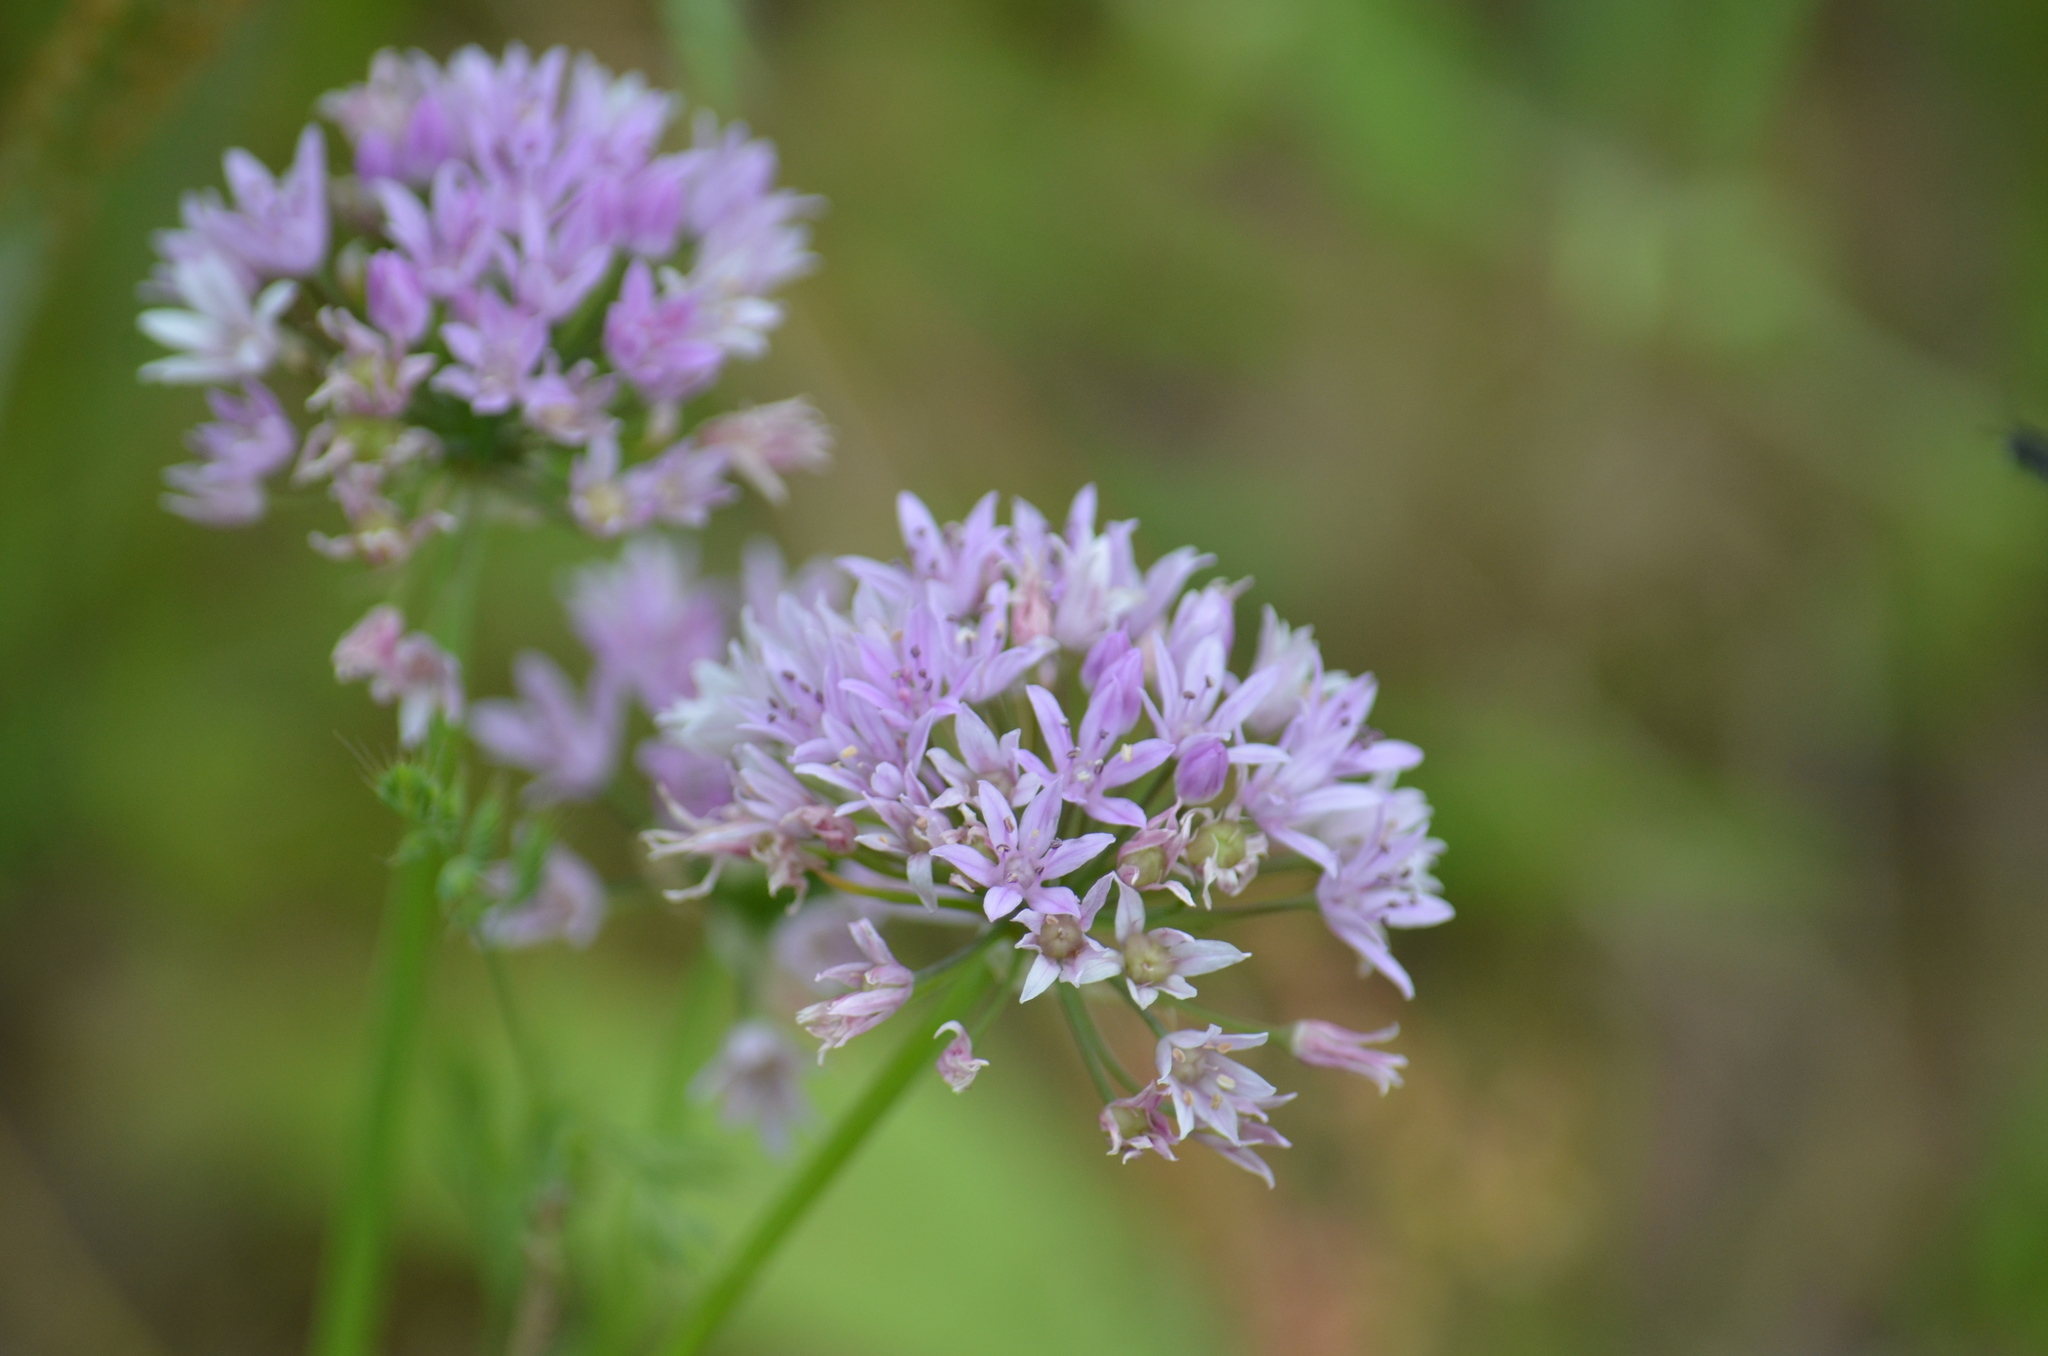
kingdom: Plantae
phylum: Tracheophyta
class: Liliopsida
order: Asparagales
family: Amaryllidaceae
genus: Allium
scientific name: Allium drummondii
